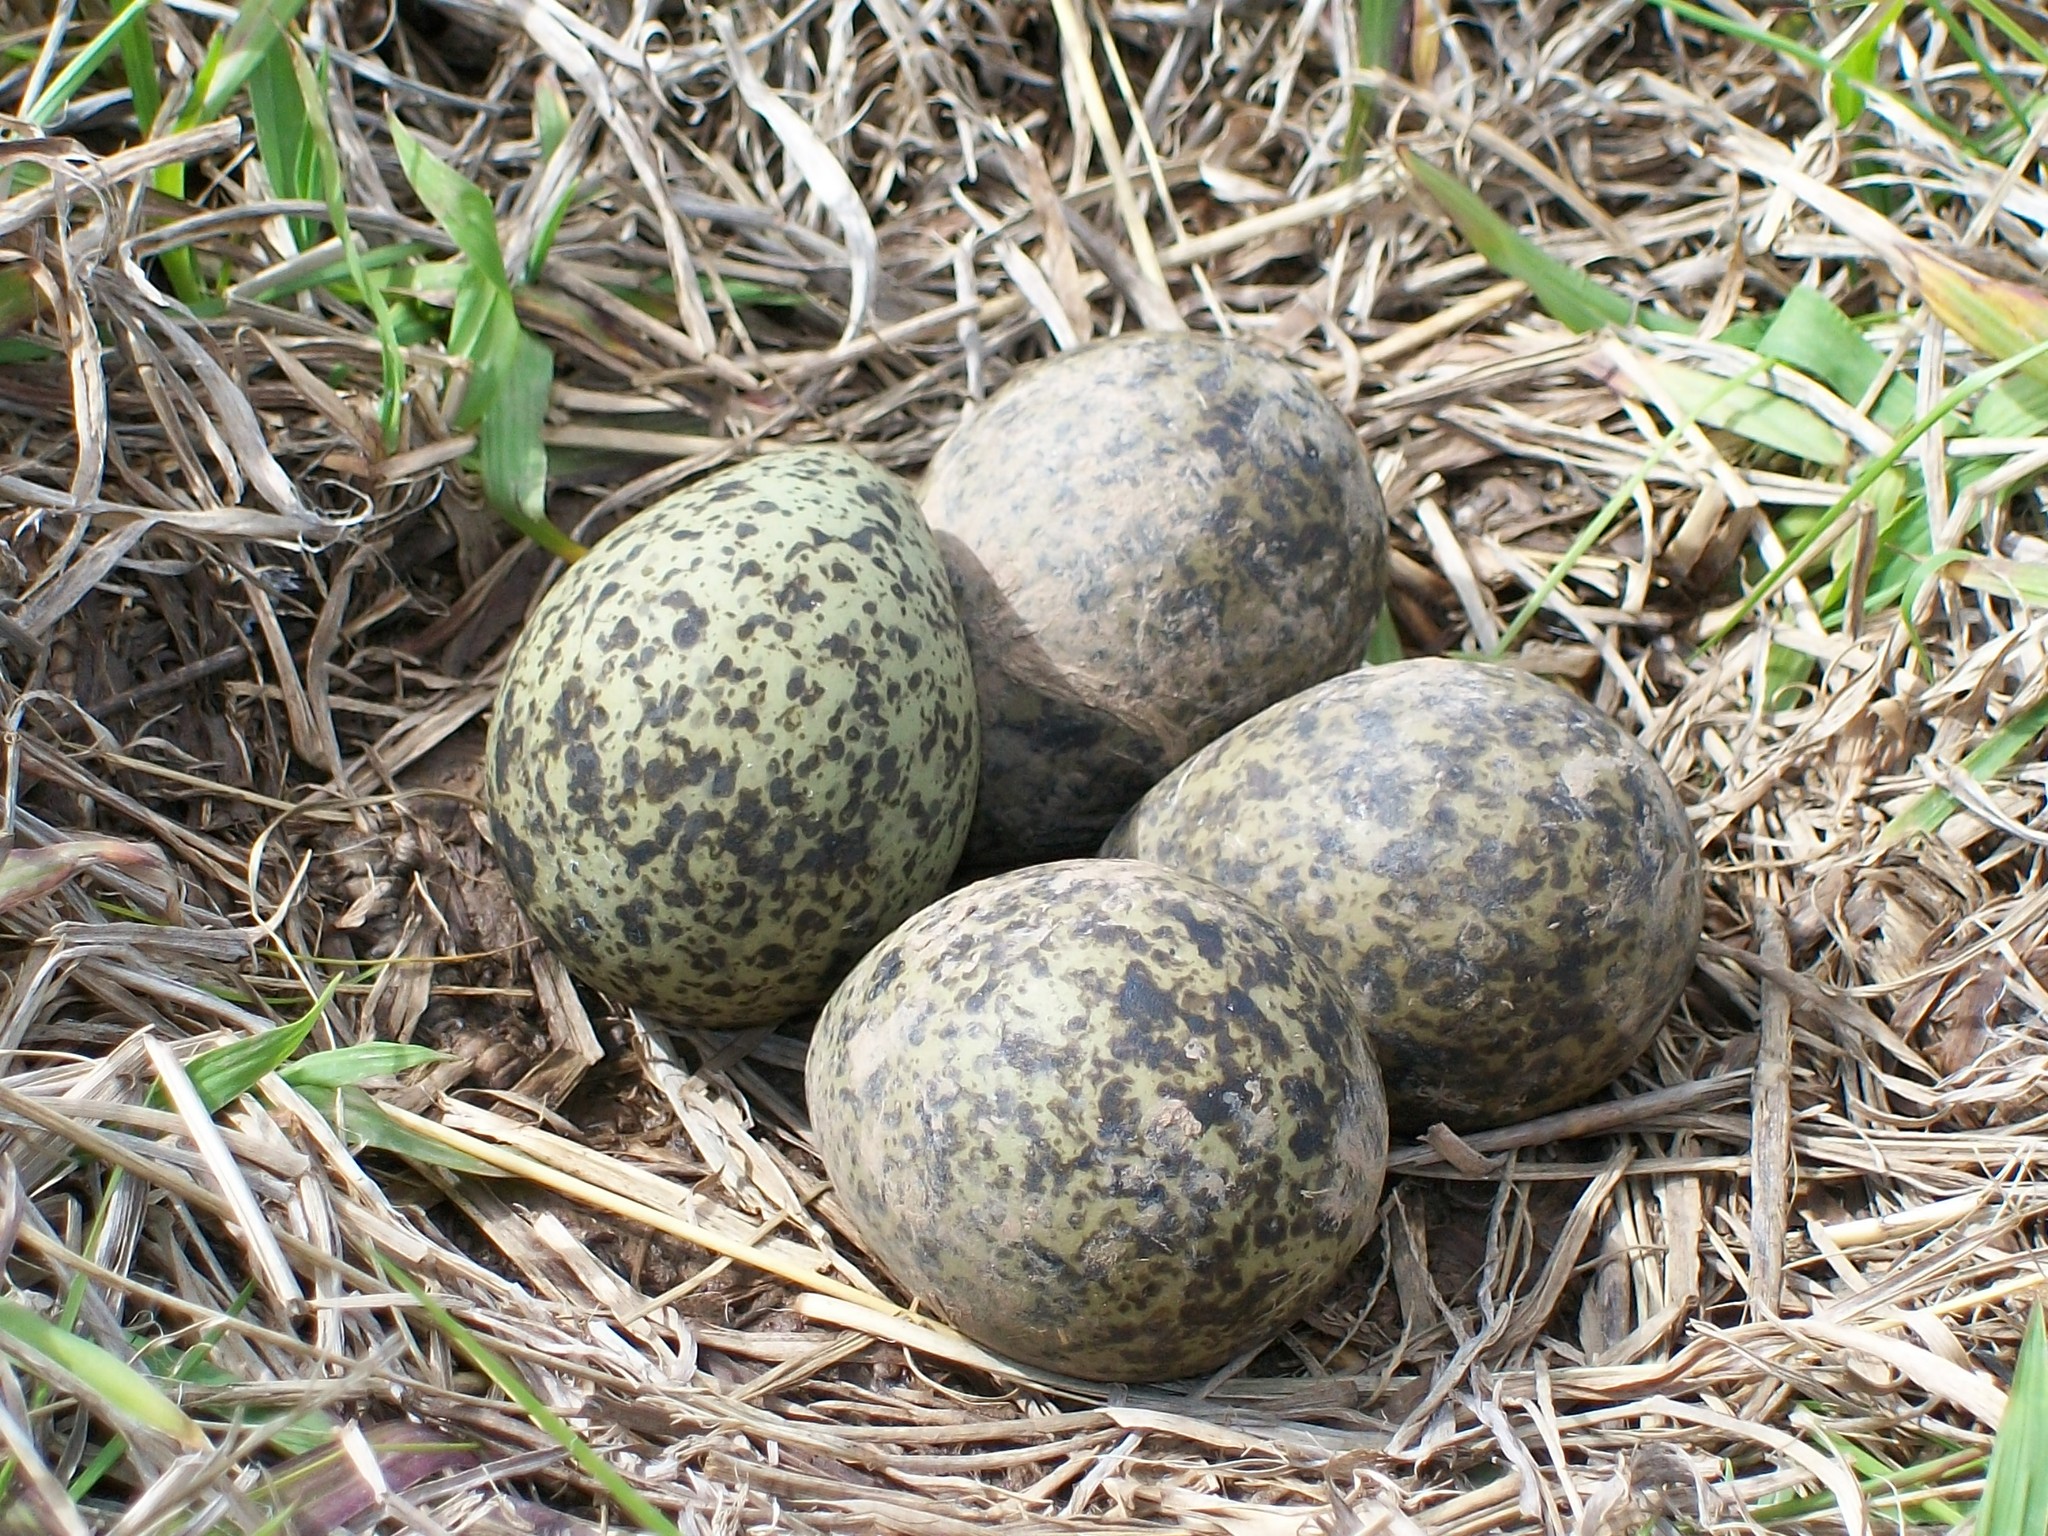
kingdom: Animalia
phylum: Chordata
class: Aves
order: Charadriiformes
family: Charadriidae
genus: Vanellus
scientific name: Vanellus miles
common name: Masked lapwing
